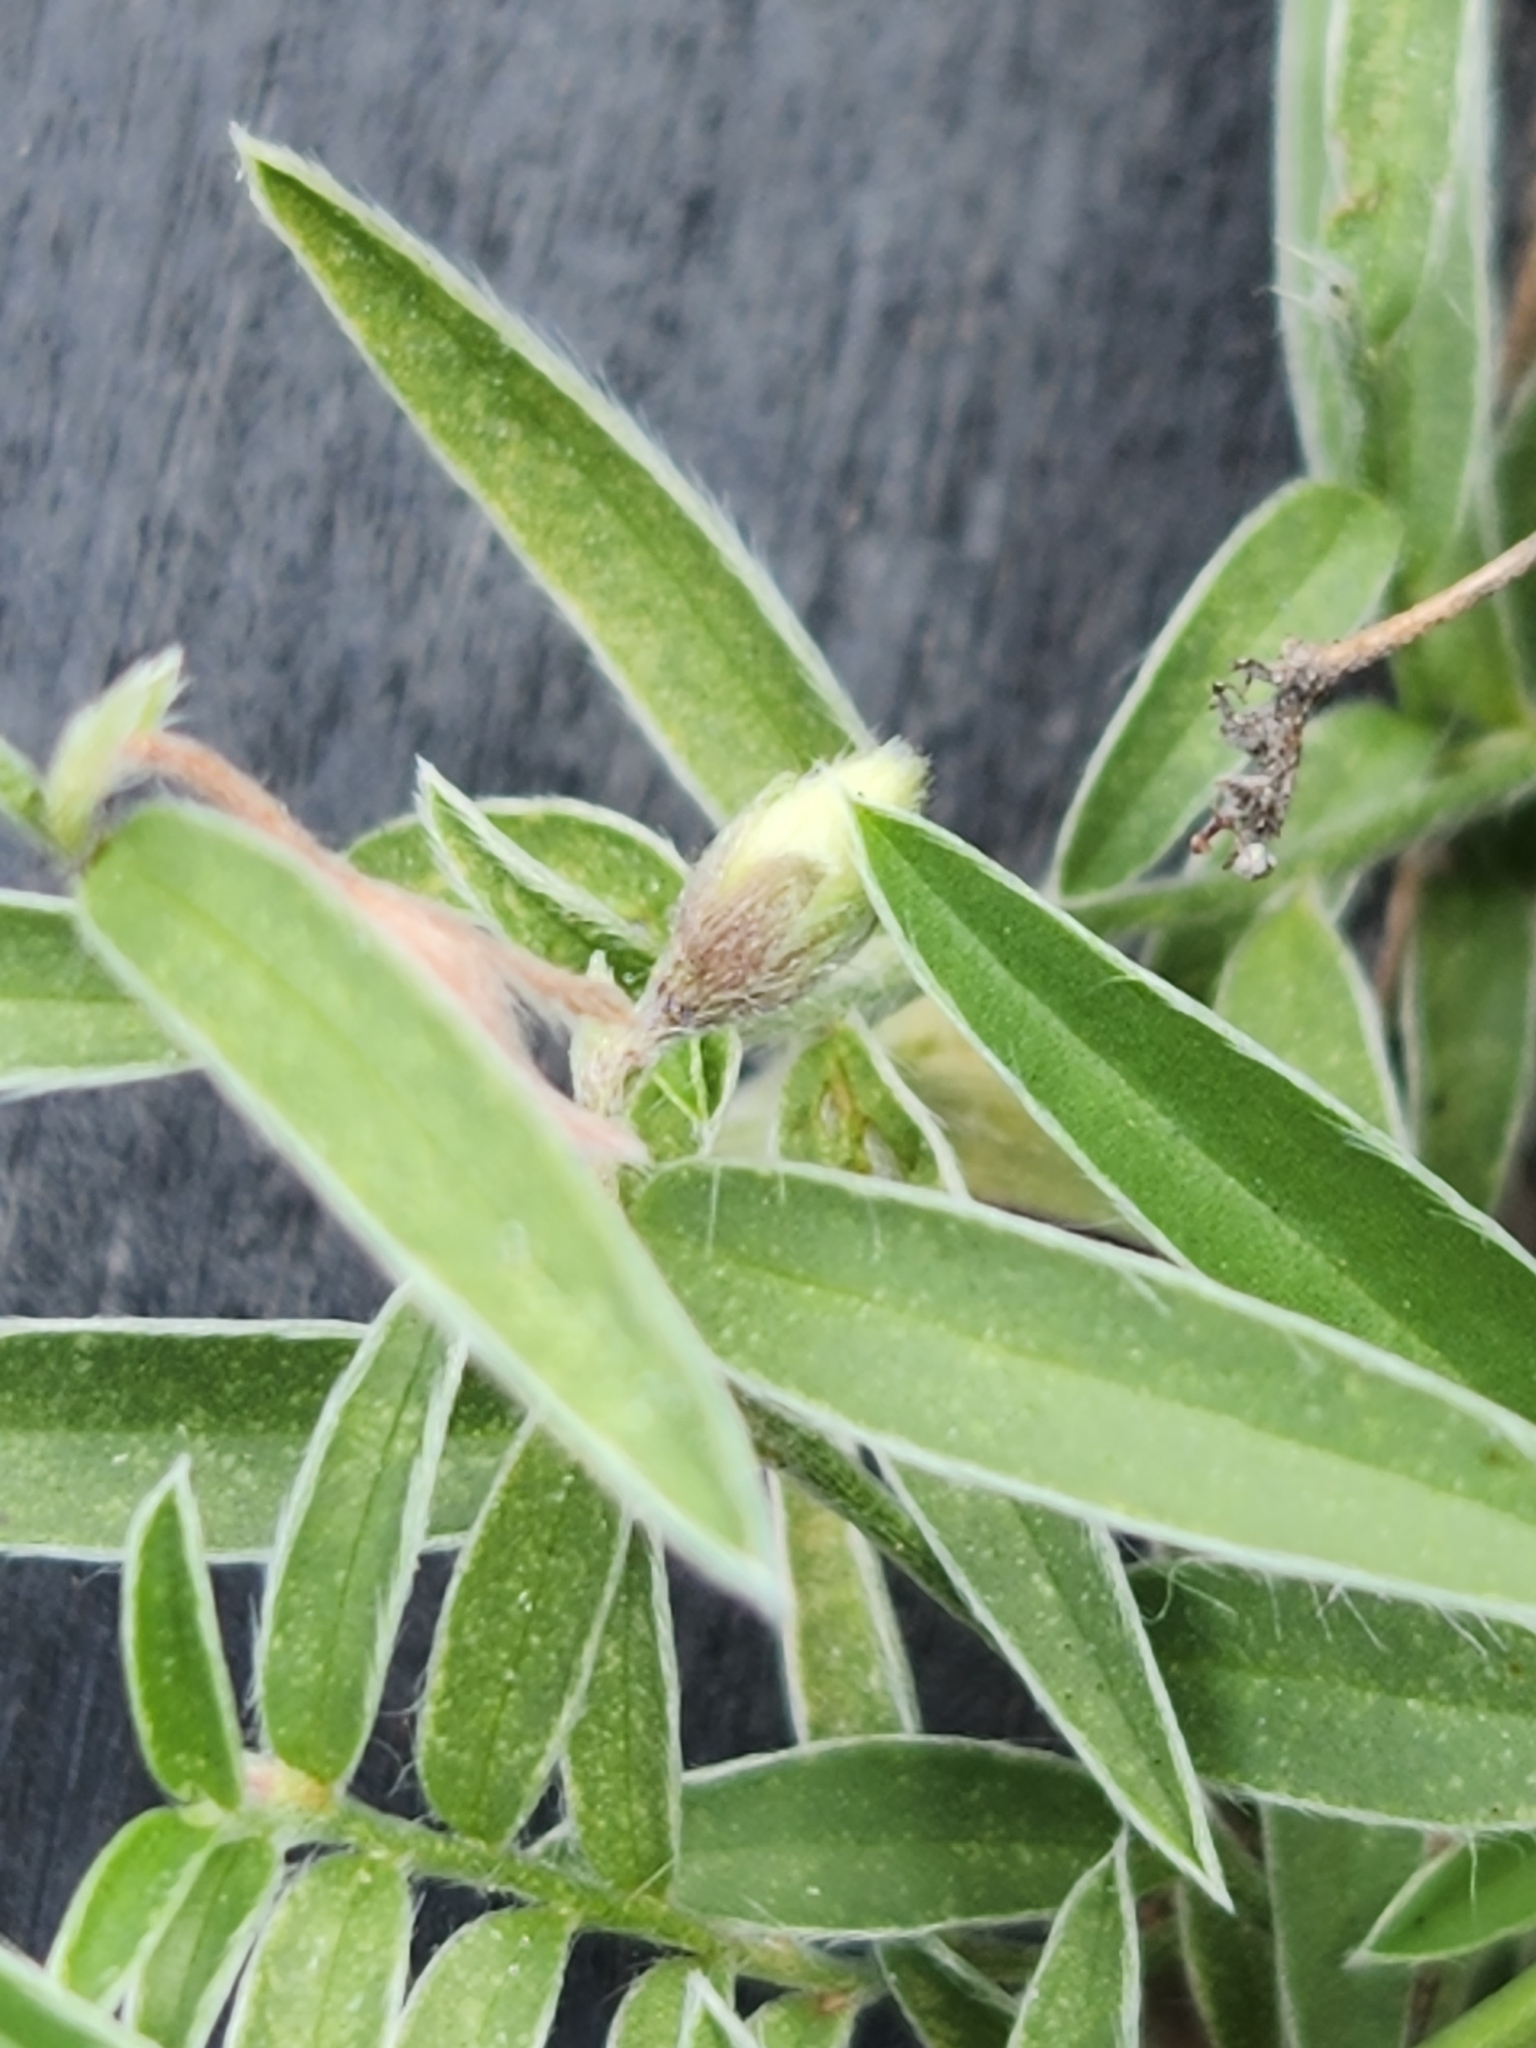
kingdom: Plantae
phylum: Tracheophyta
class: Magnoliopsida
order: Solanales
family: Convolvulaceae
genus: Evolvulus
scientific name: Evolvulus sericeus
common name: Blue dots
